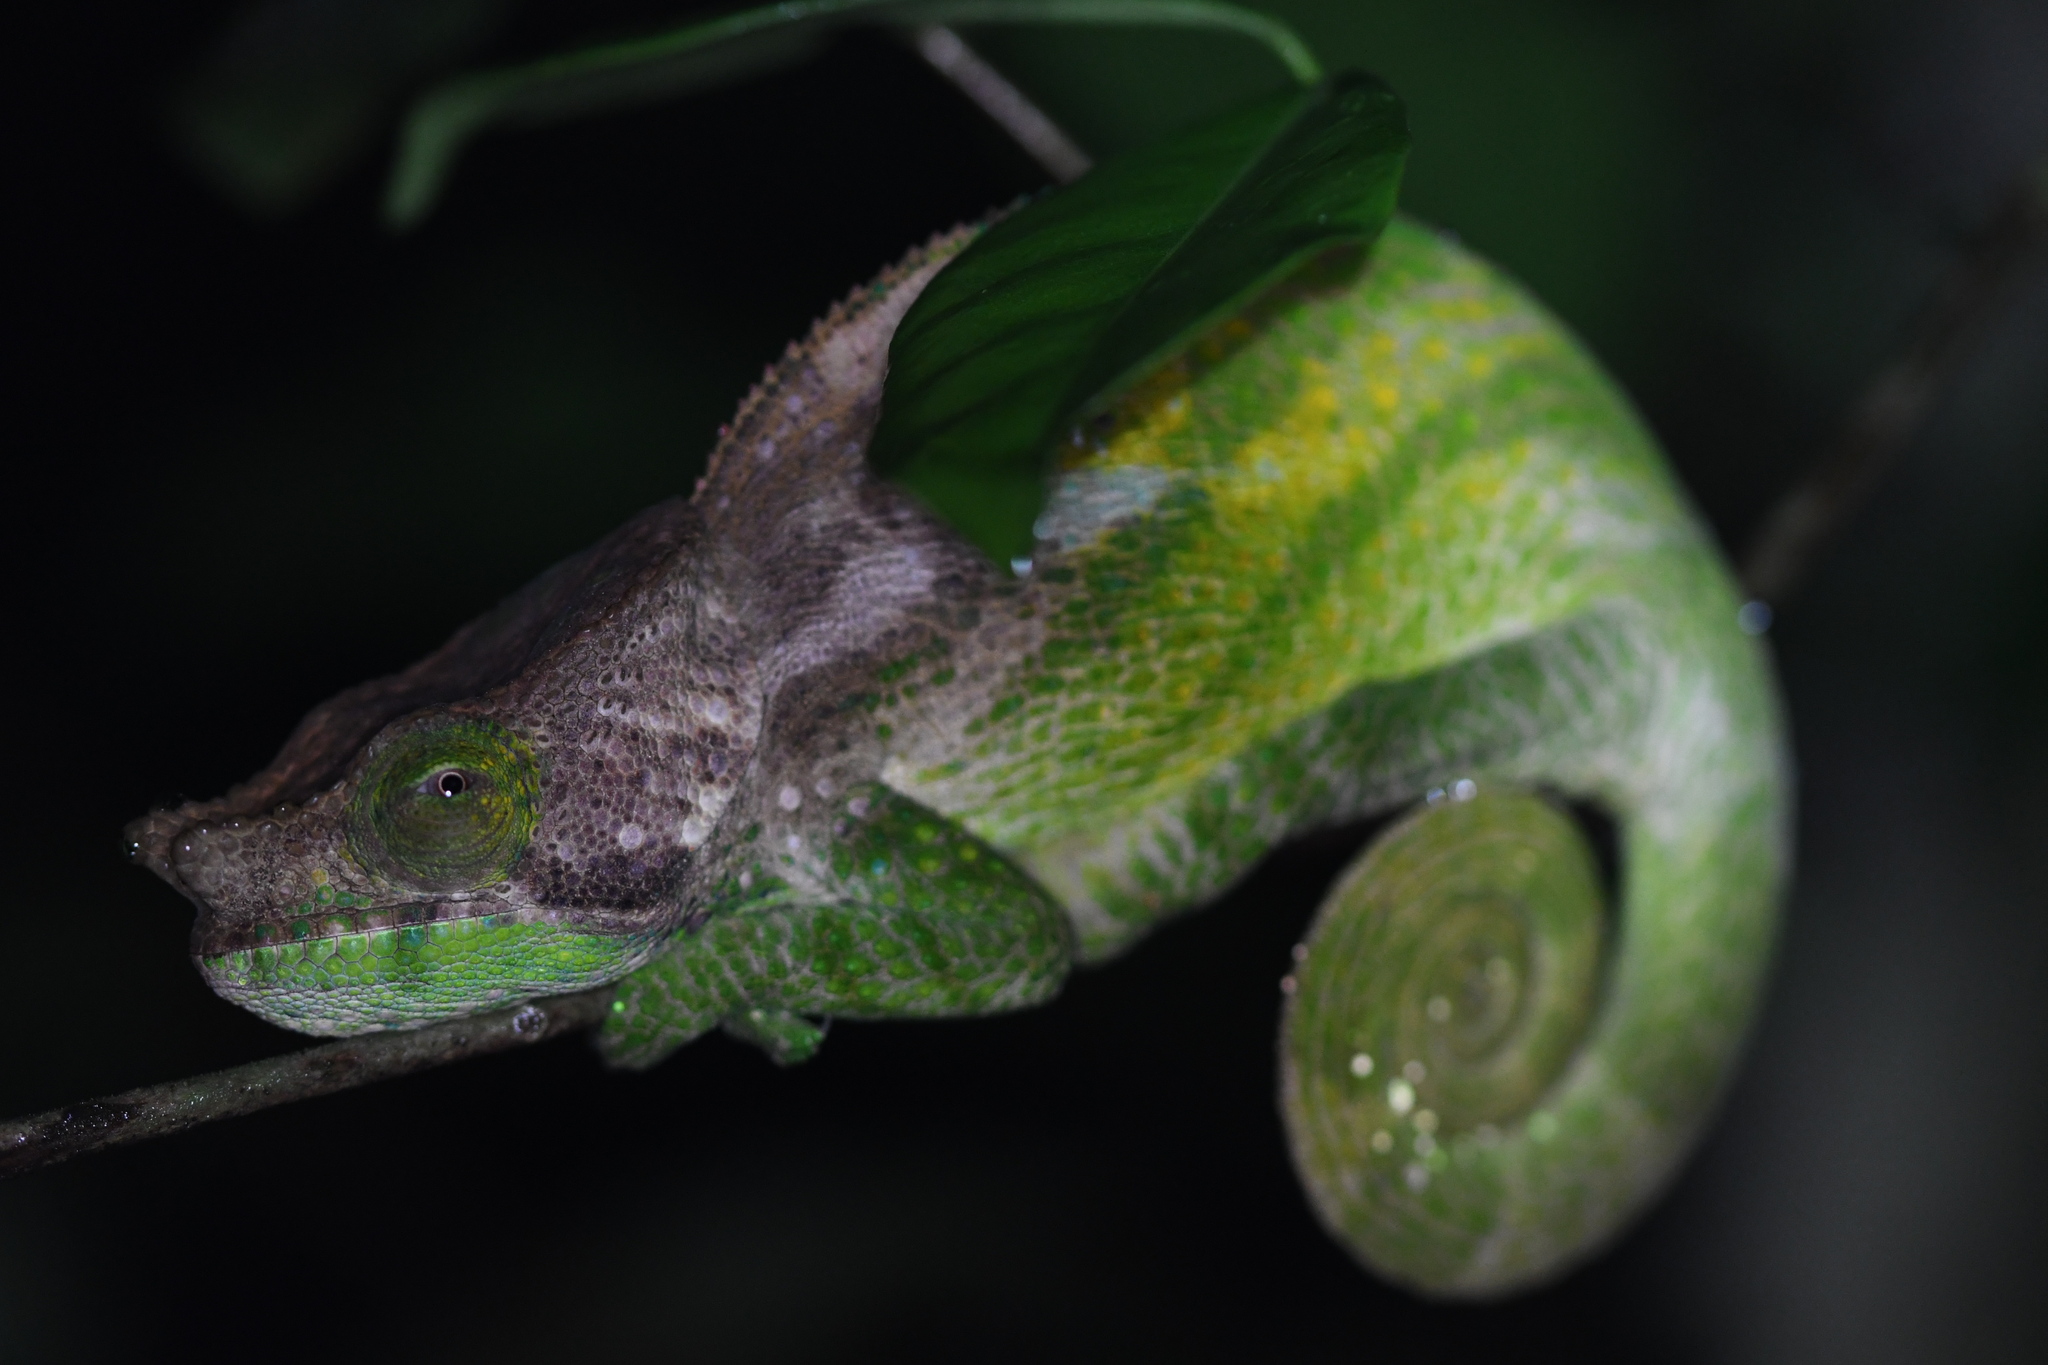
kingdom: Animalia
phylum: Chordata
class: Squamata
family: Chamaeleonidae
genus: Calumma
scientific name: Calumma oshaughnessyi
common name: O'shaughnessy's chameleon
